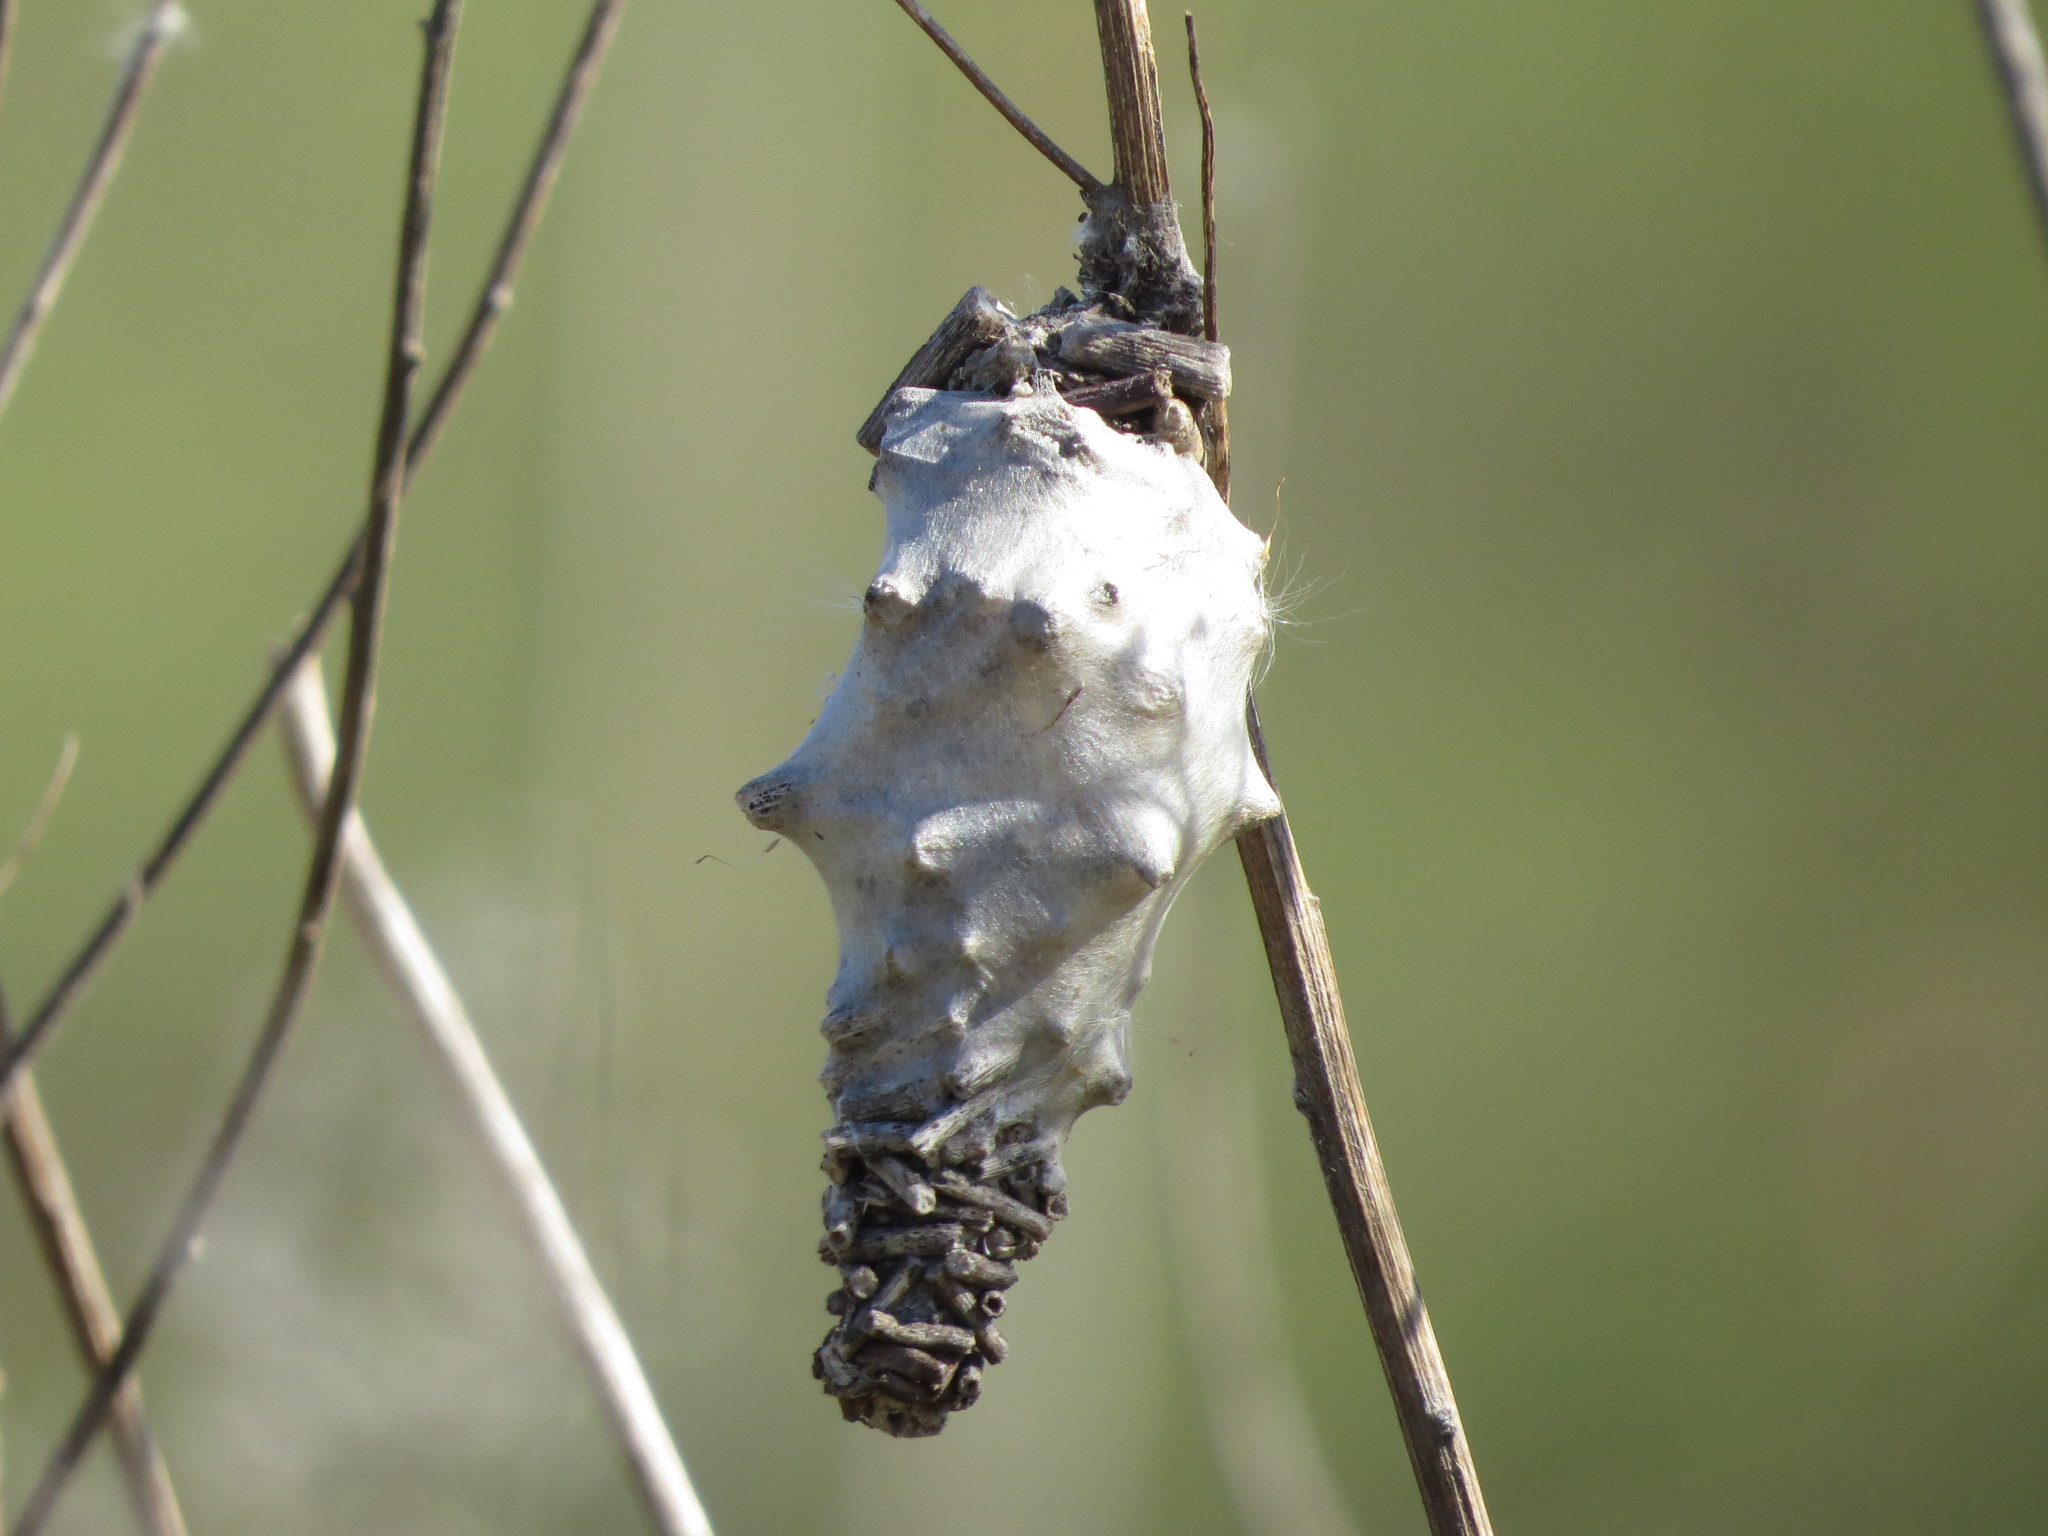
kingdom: Animalia
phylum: Arthropoda
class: Insecta
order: Lepidoptera
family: Psychidae
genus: Oiketicus
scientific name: Oiketicus kirbyi
